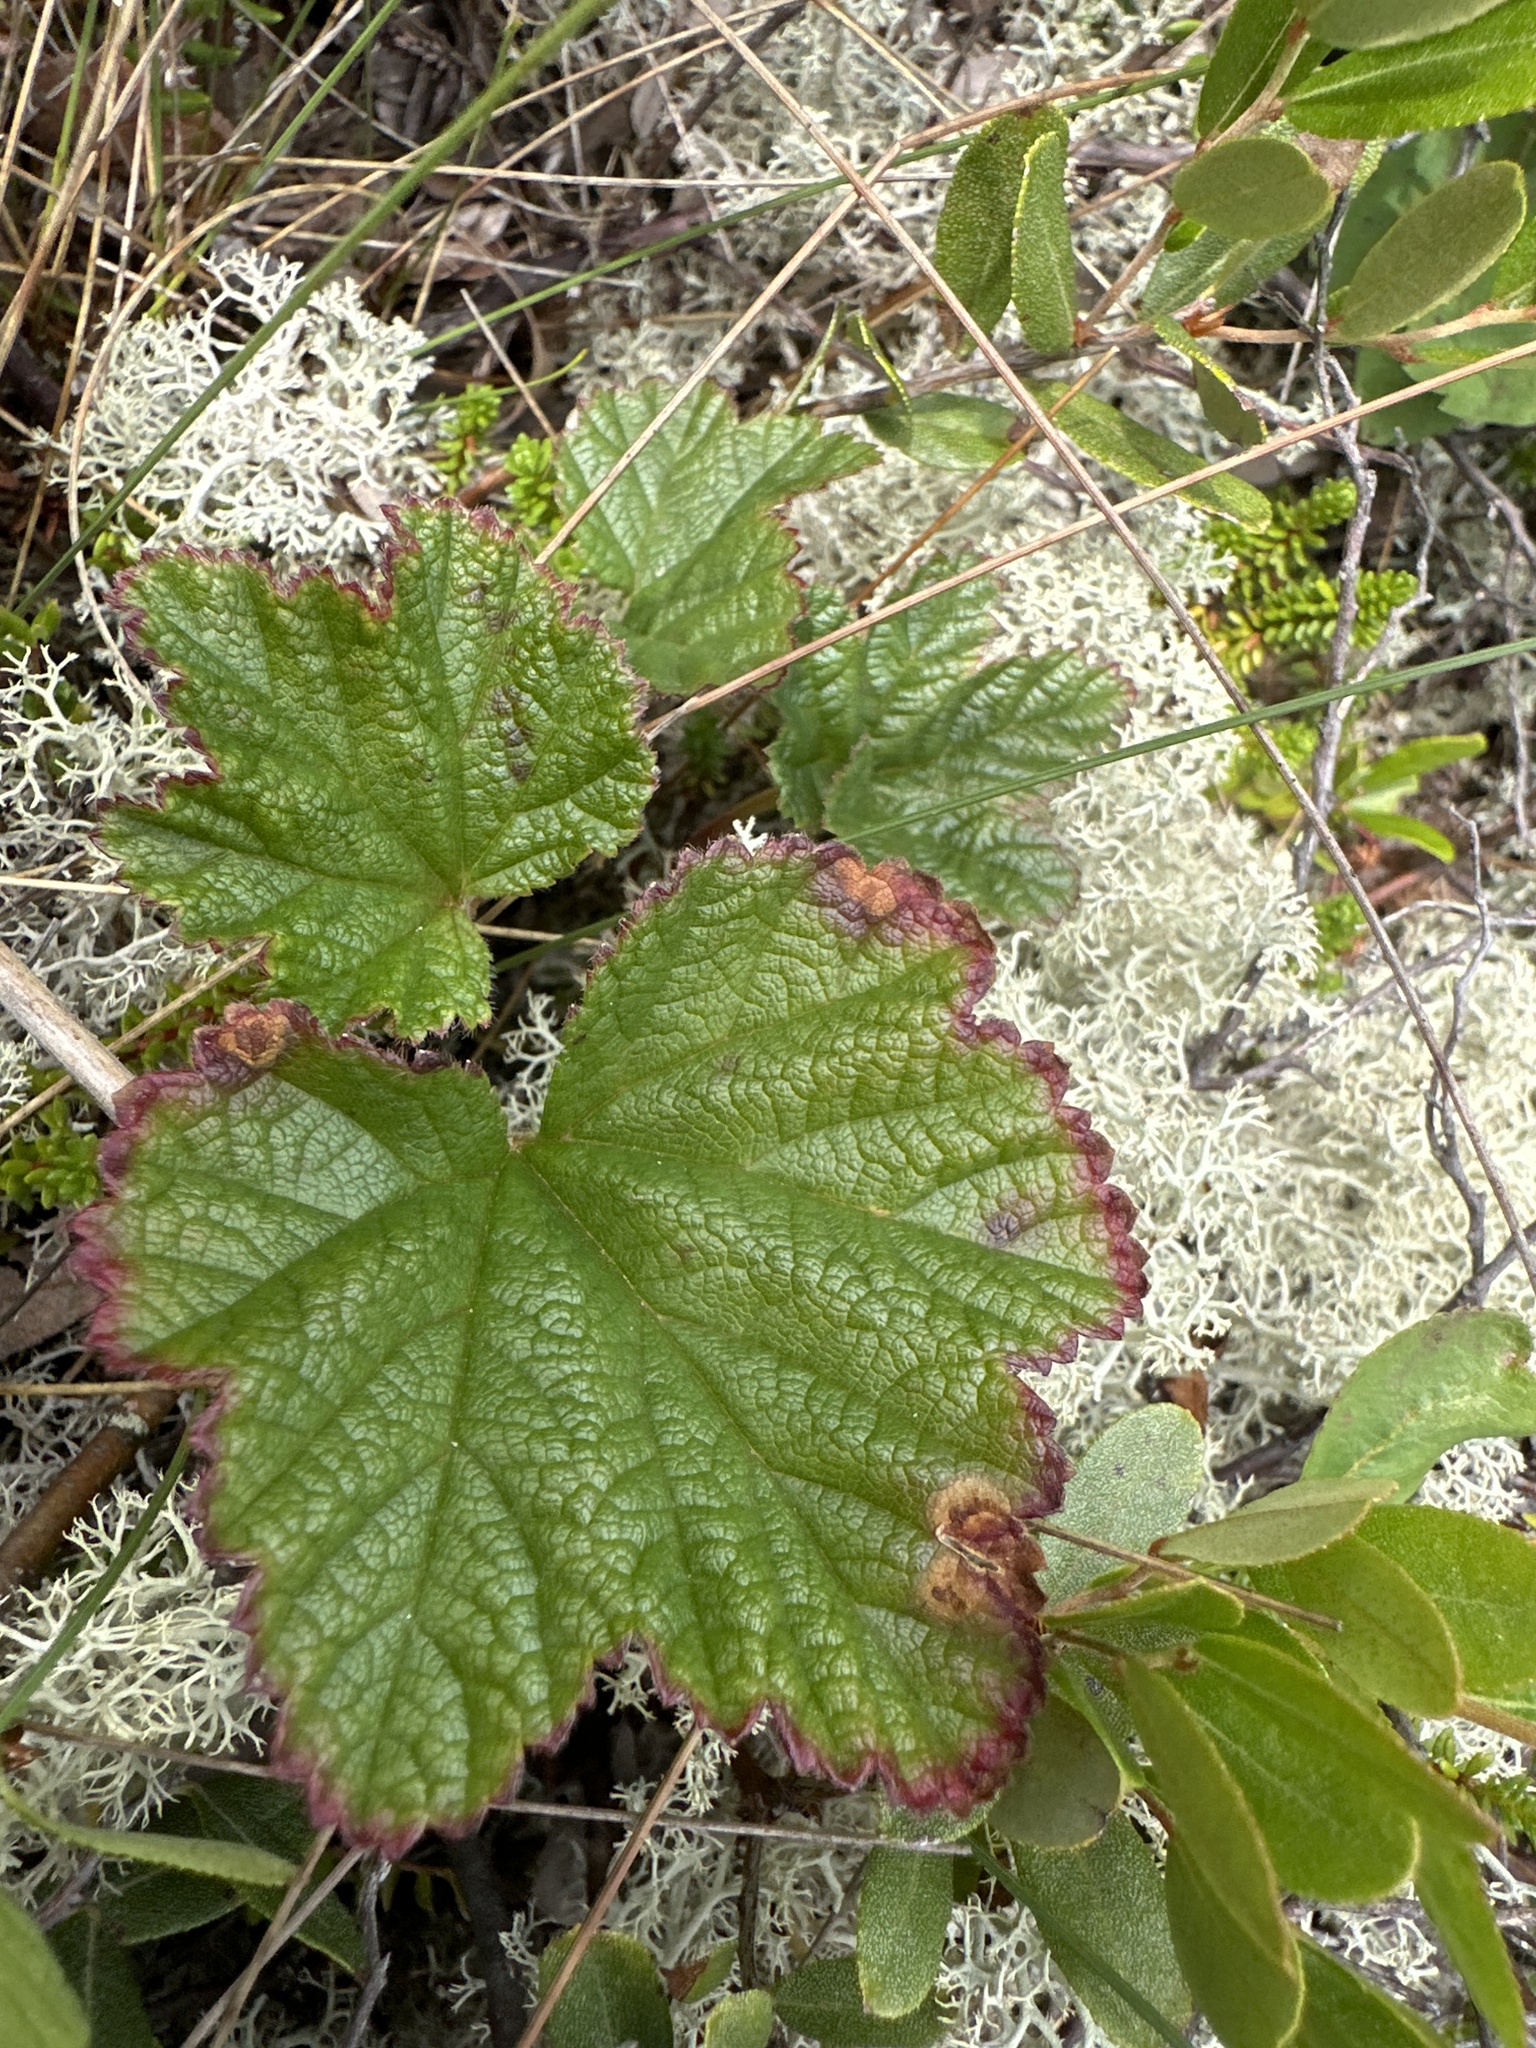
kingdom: Plantae
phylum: Tracheophyta
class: Magnoliopsida
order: Rosales
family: Rosaceae
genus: Rubus
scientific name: Rubus chamaemorus
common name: Cloudberry
